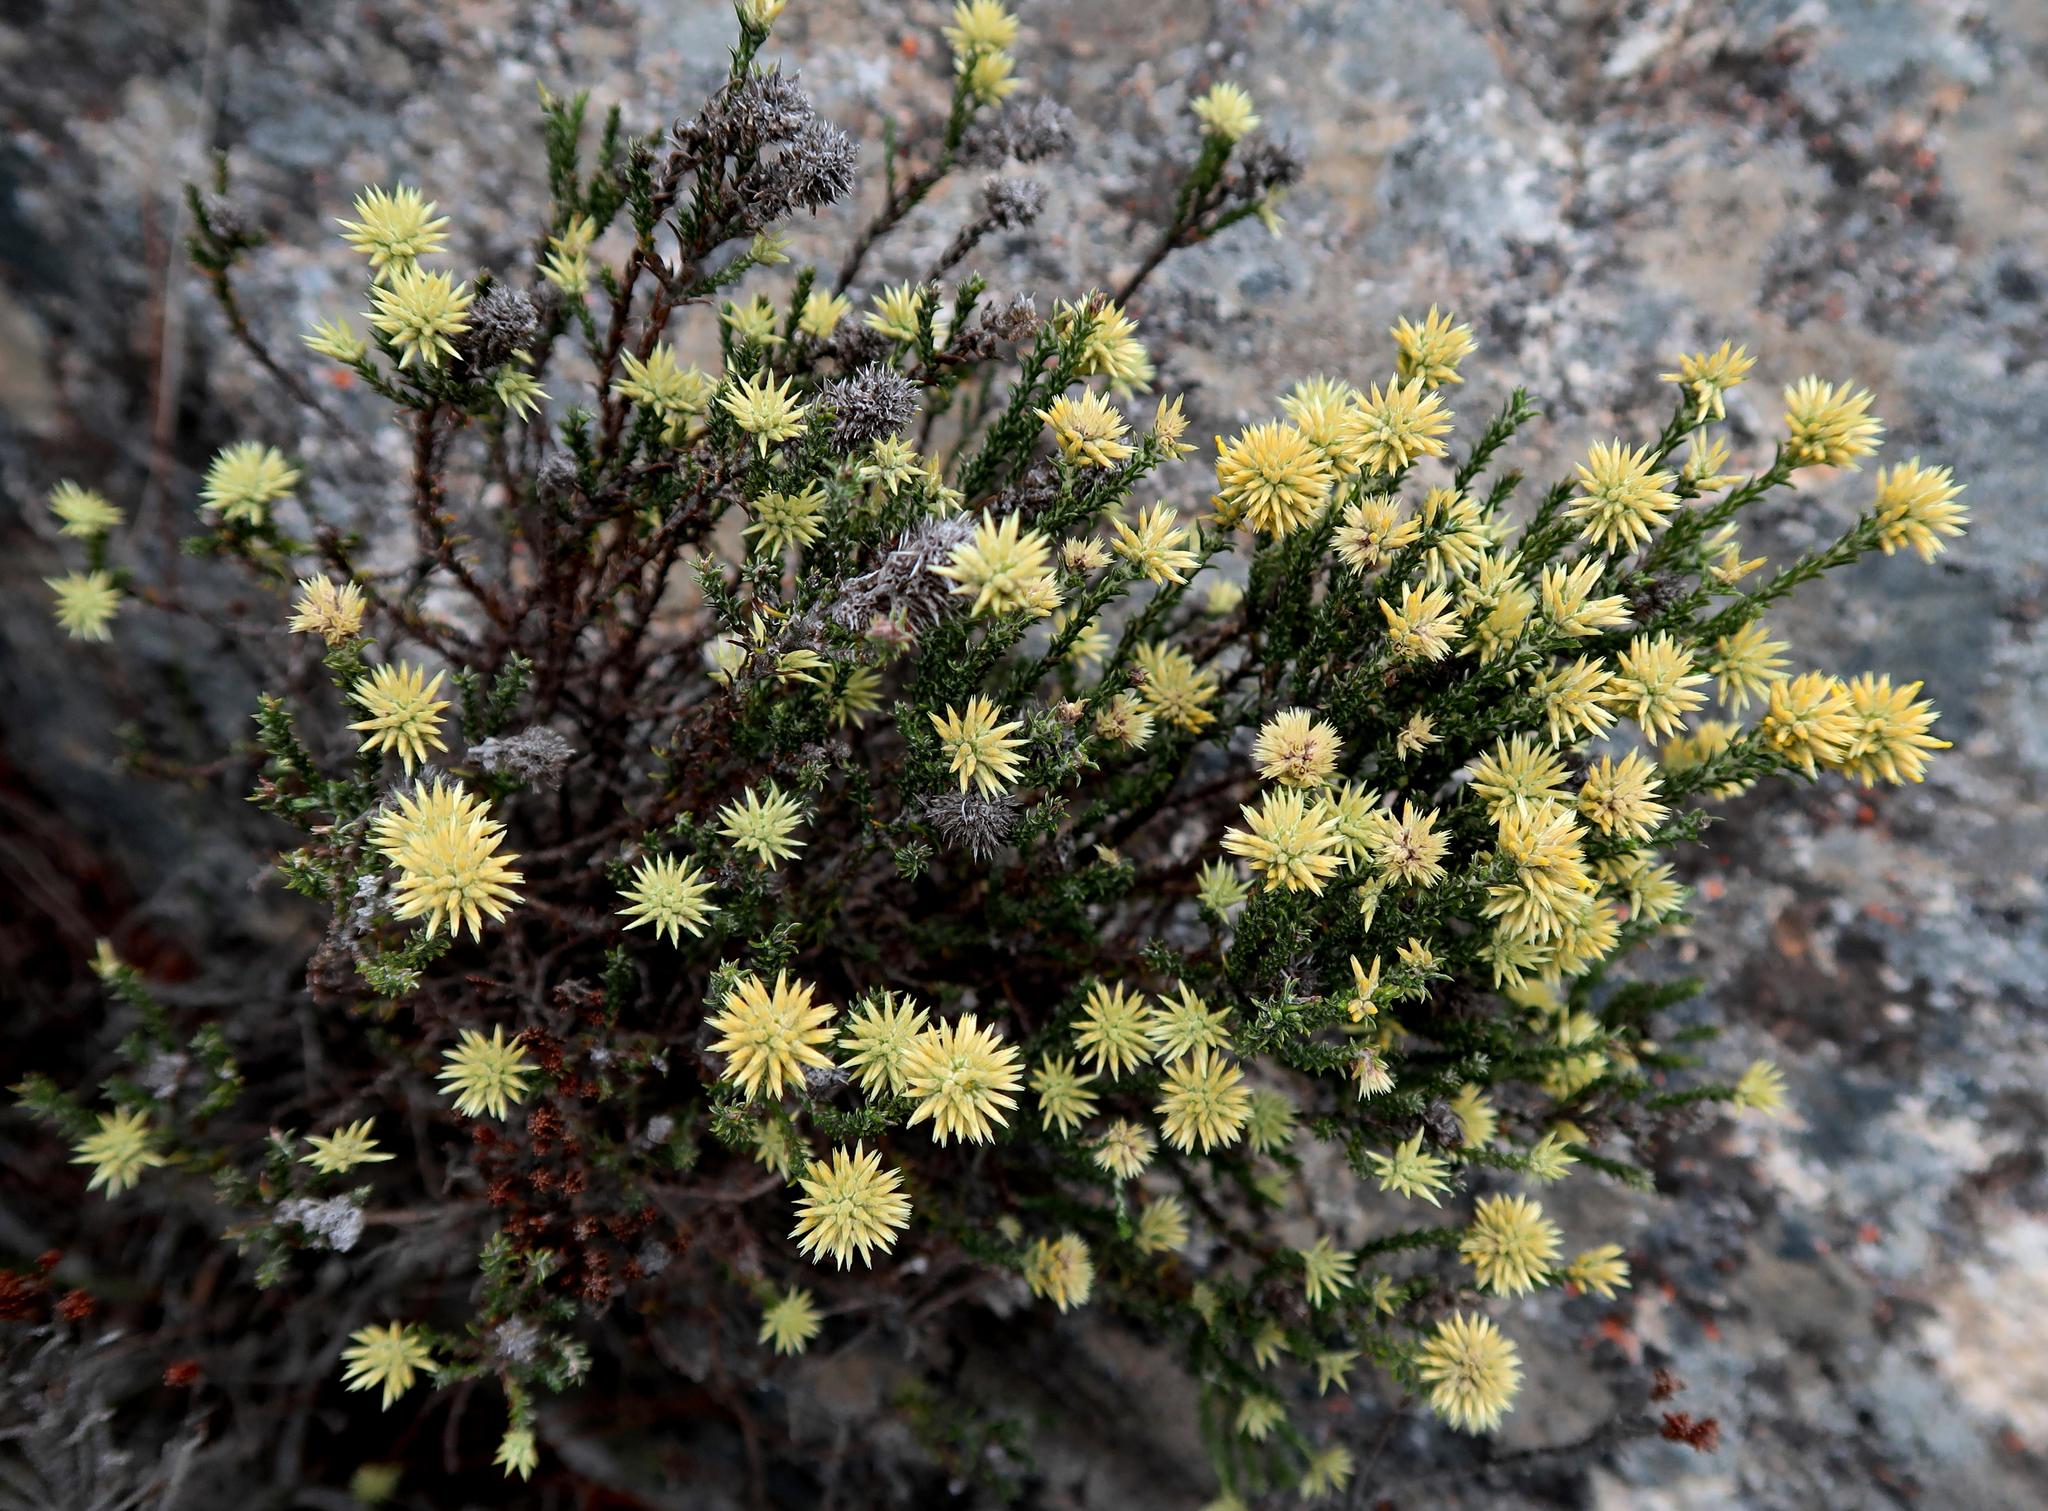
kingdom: Plantae
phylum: Tracheophyta
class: Magnoliopsida
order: Asterales
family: Asteraceae
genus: Seriphium
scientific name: Seriphium spirale
